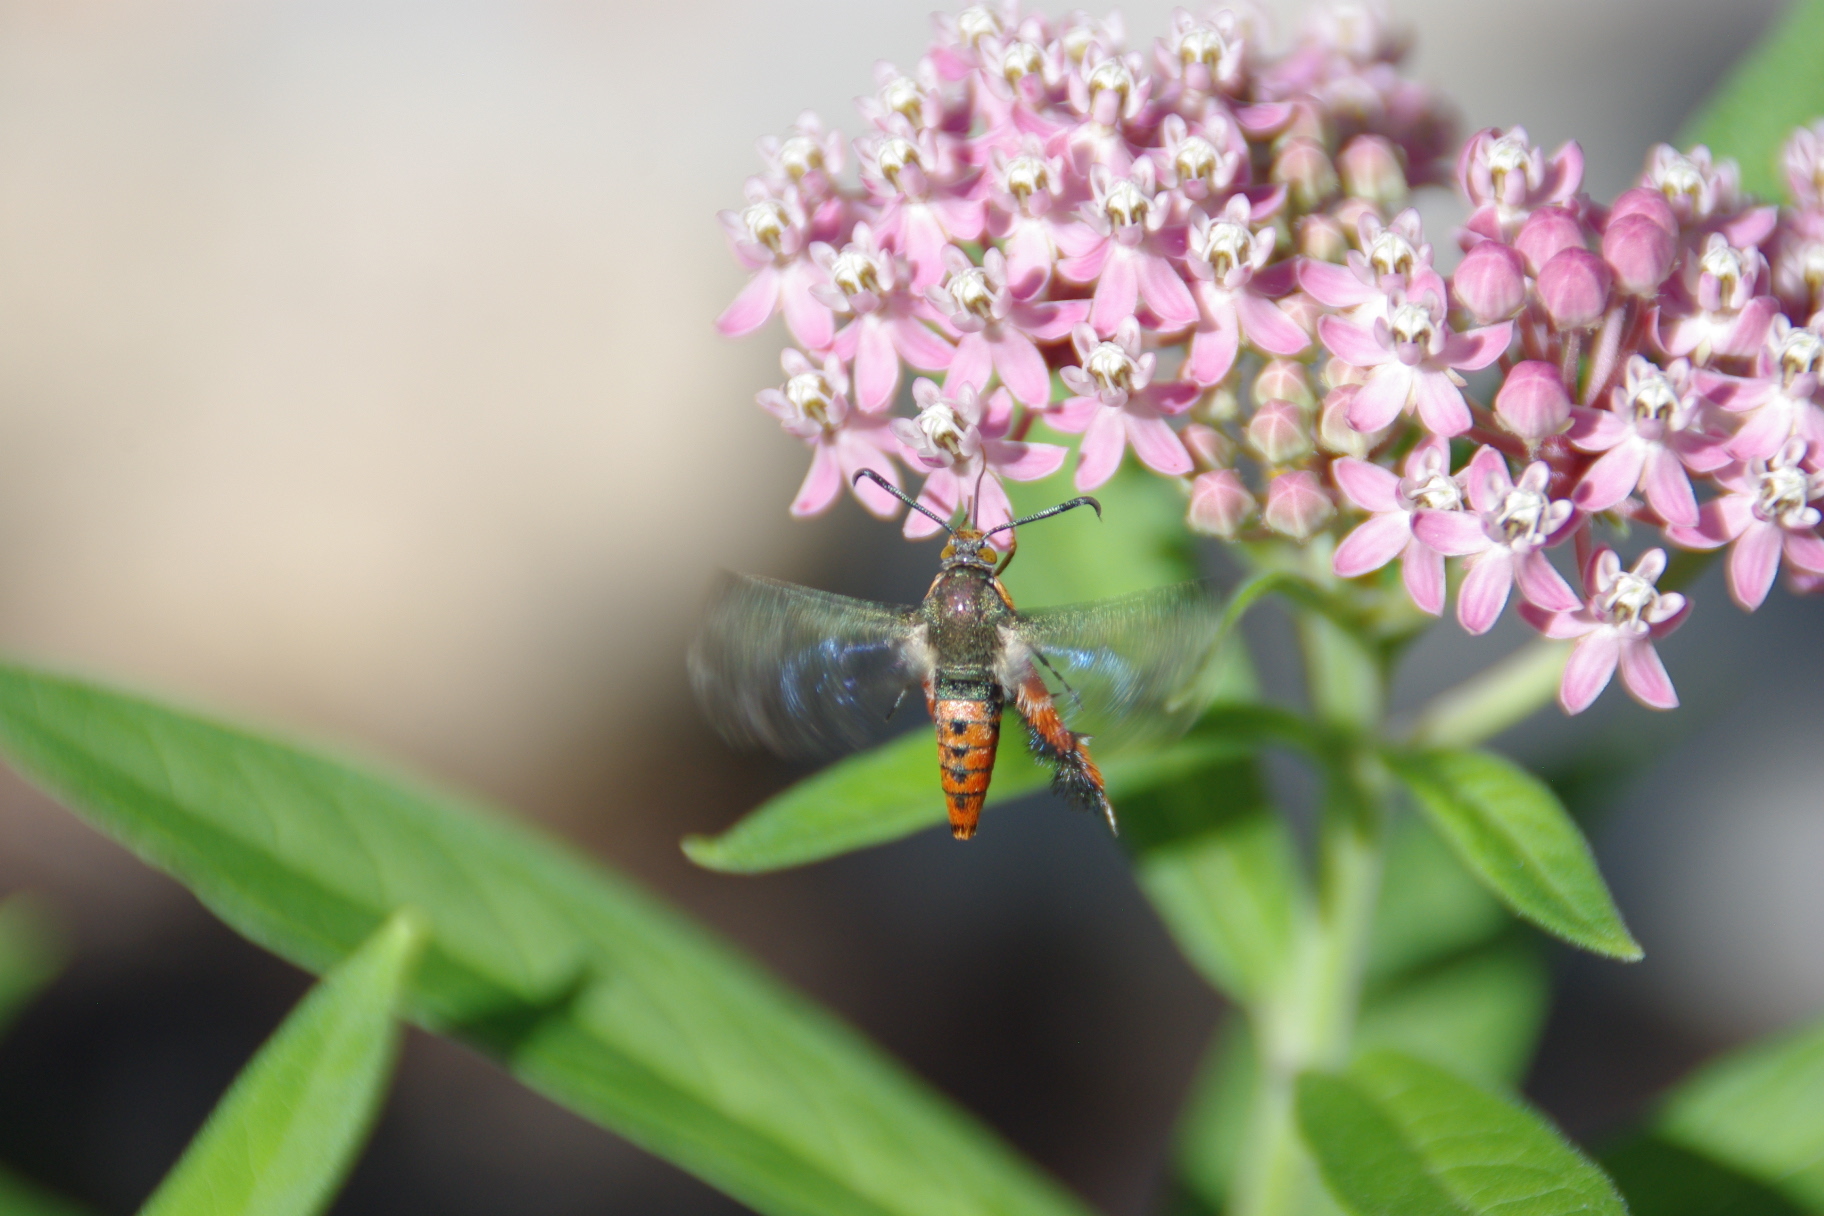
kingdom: Animalia
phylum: Arthropoda
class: Insecta
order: Lepidoptera
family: Sesiidae
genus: Eichlinia
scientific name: Eichlinia cucurbitae
